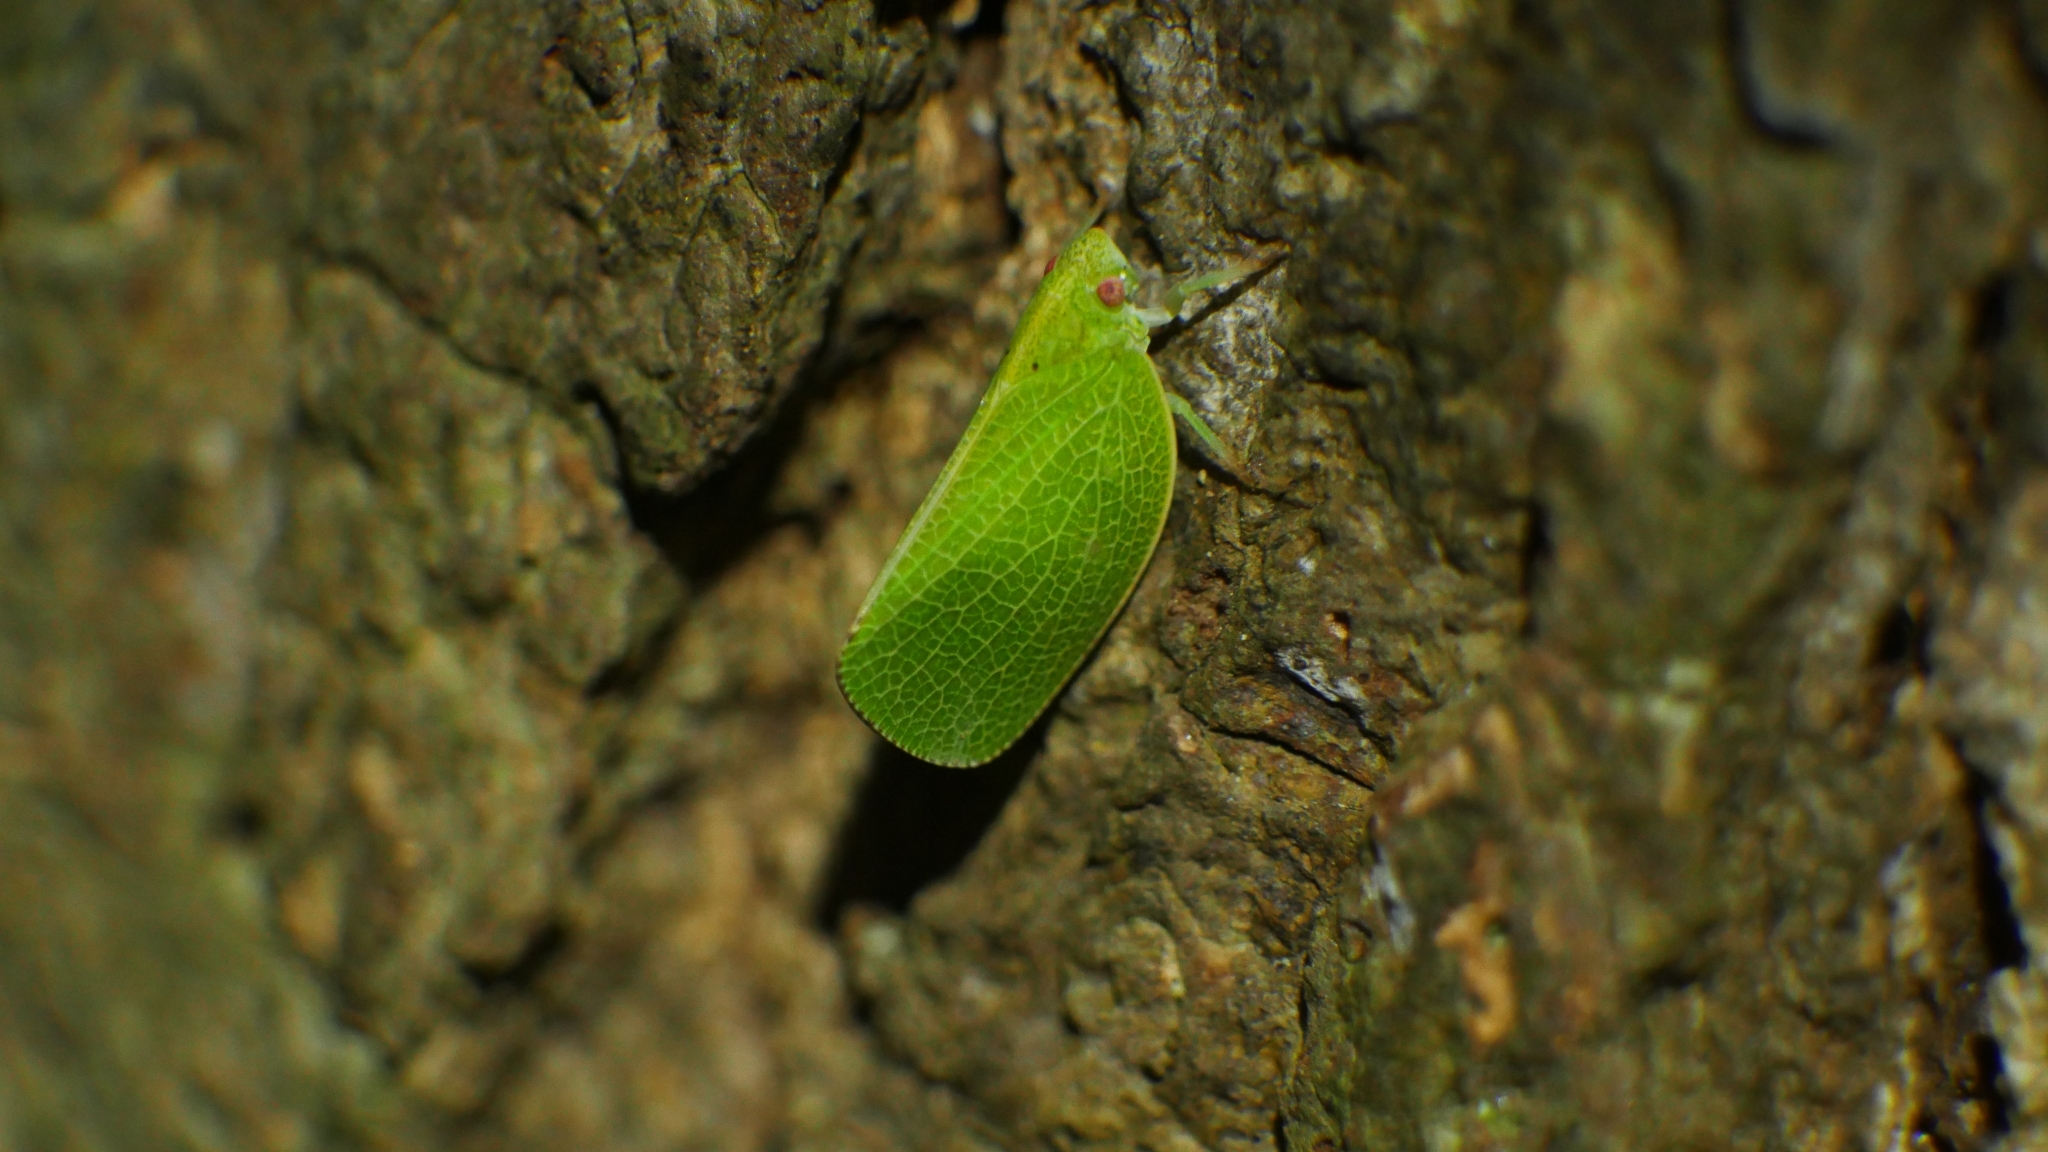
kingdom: Animalia
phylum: Arthropoda
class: Insecta
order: Hemiptera
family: Acanaloniidae
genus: Acanalonia
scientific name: Acanalonia conica
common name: Green cone-headed planthopper
